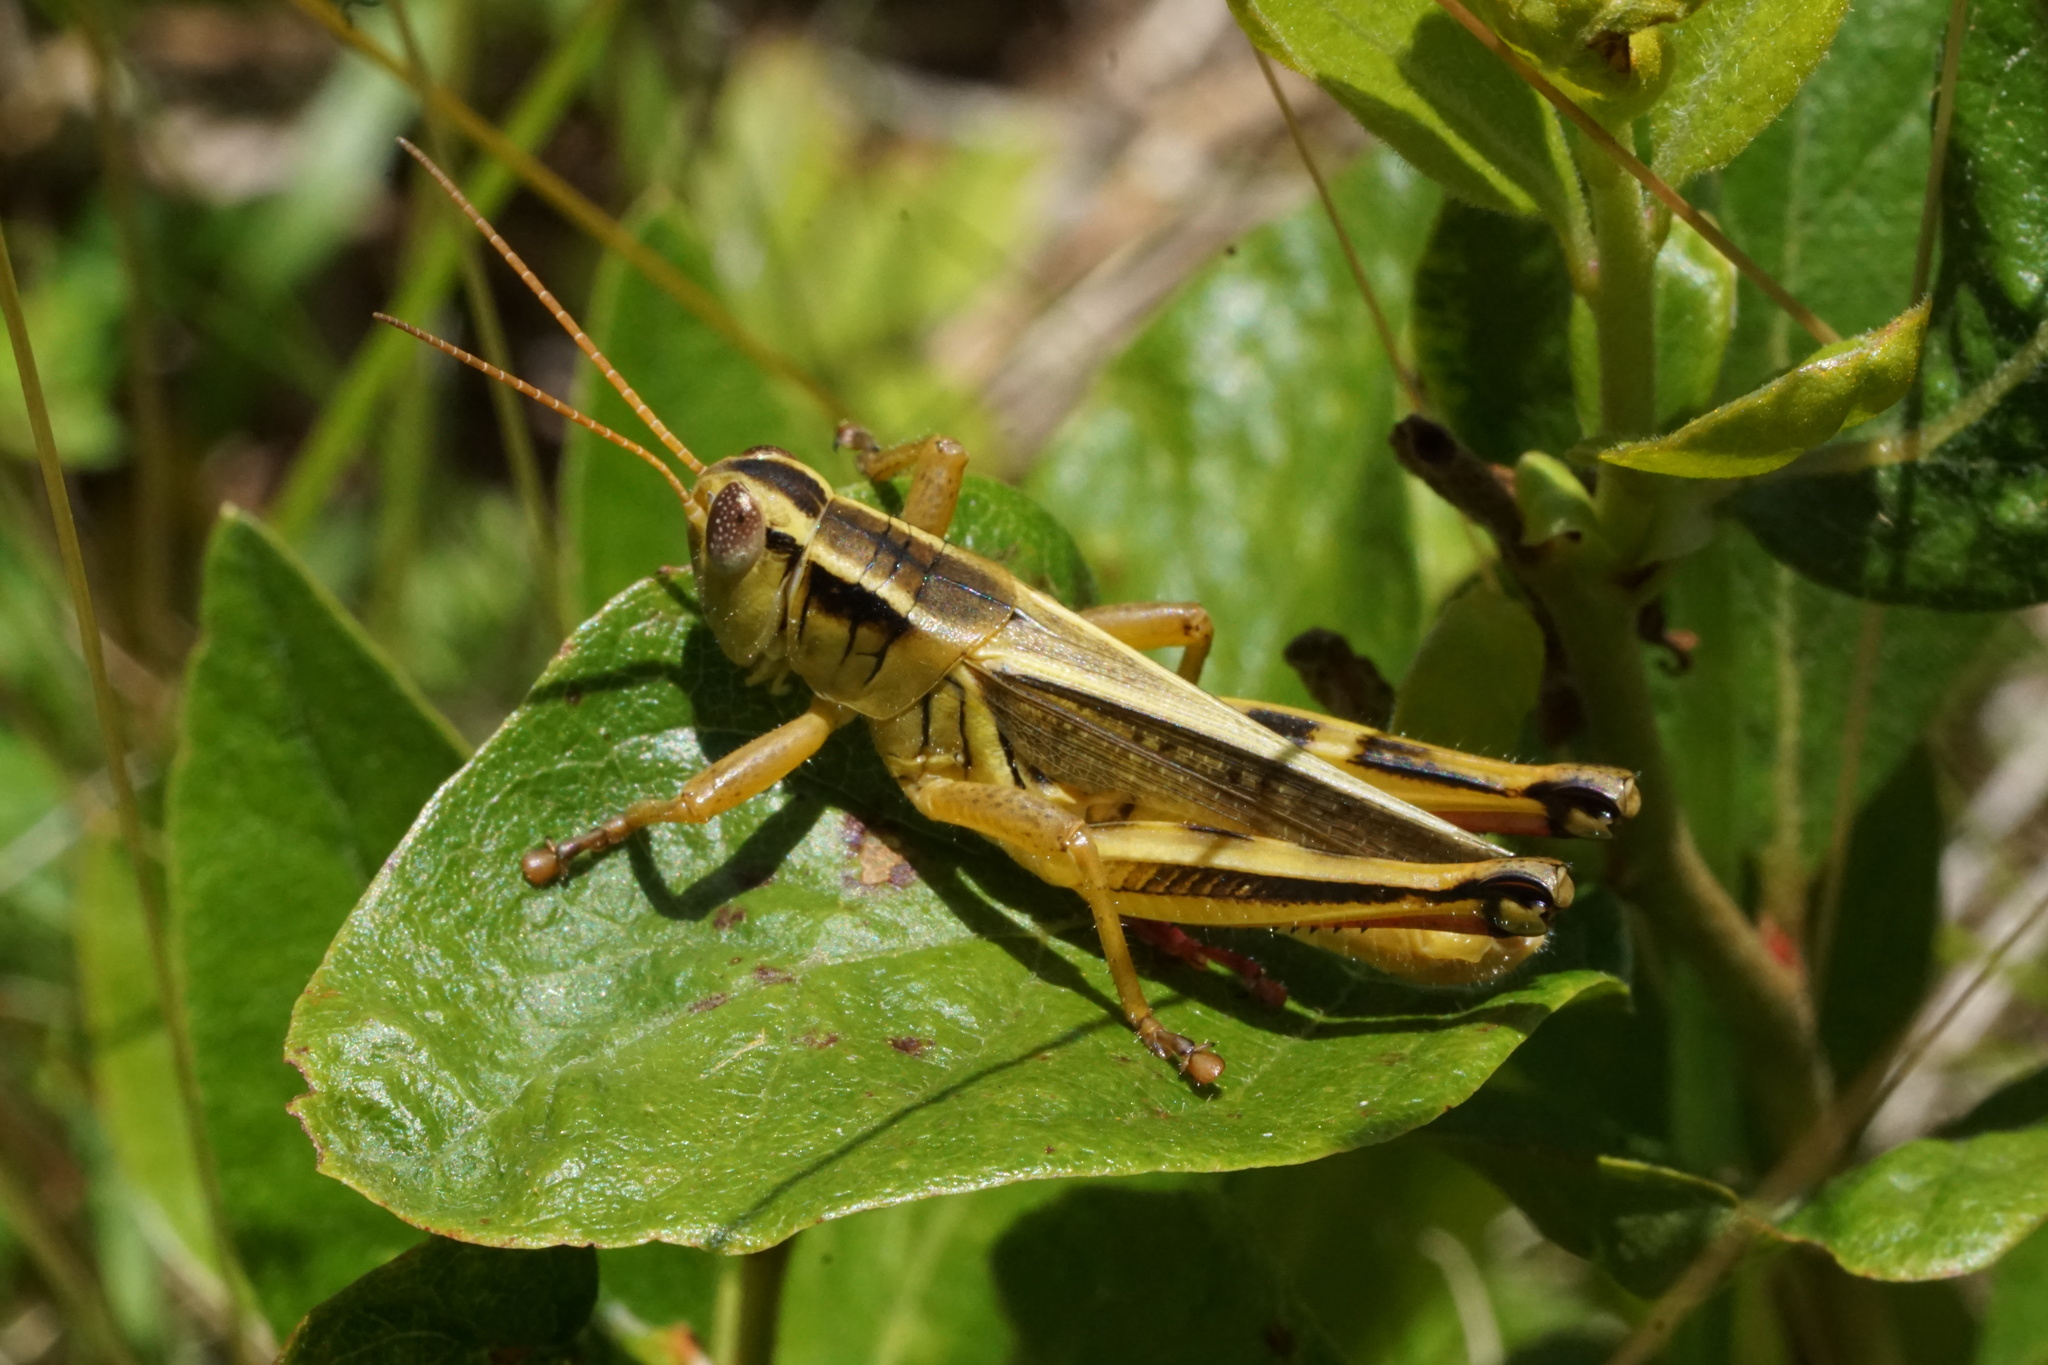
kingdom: Animalia
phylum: Arthropoda
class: Insecta
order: Orthoptera
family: Acrididae
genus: Melanoplus
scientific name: Melanoplus bivittatus
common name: Two-striped grasshopper
